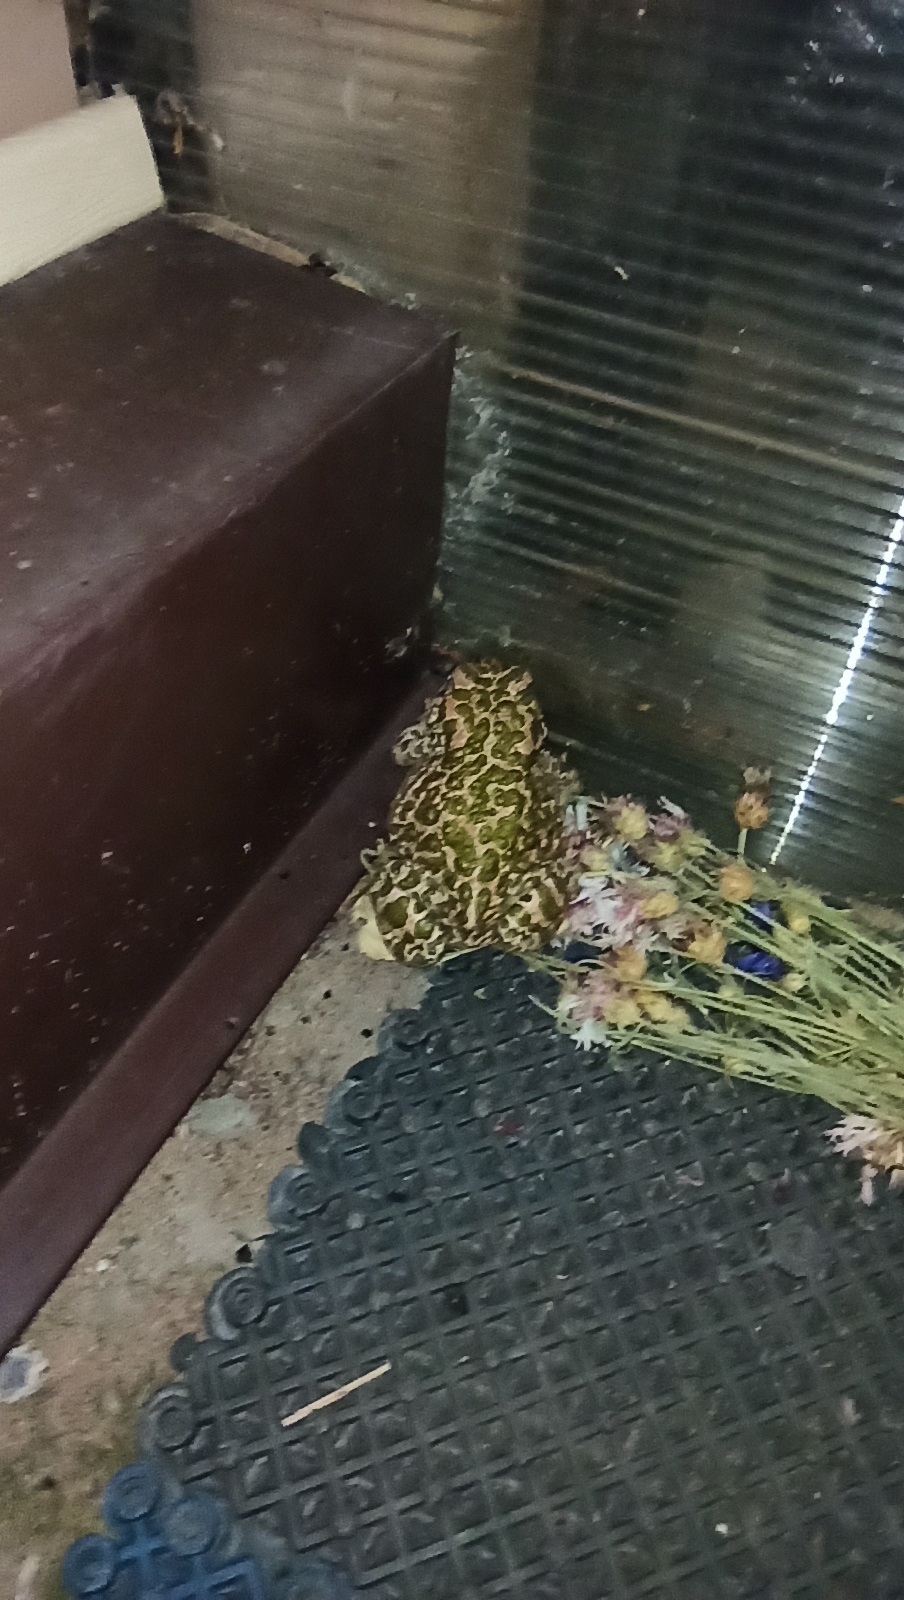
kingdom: Animalia
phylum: Chordata
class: Amphibia
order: Anura
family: Bufonidae
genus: Bufotes
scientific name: Bufotes viridis
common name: European green toad
